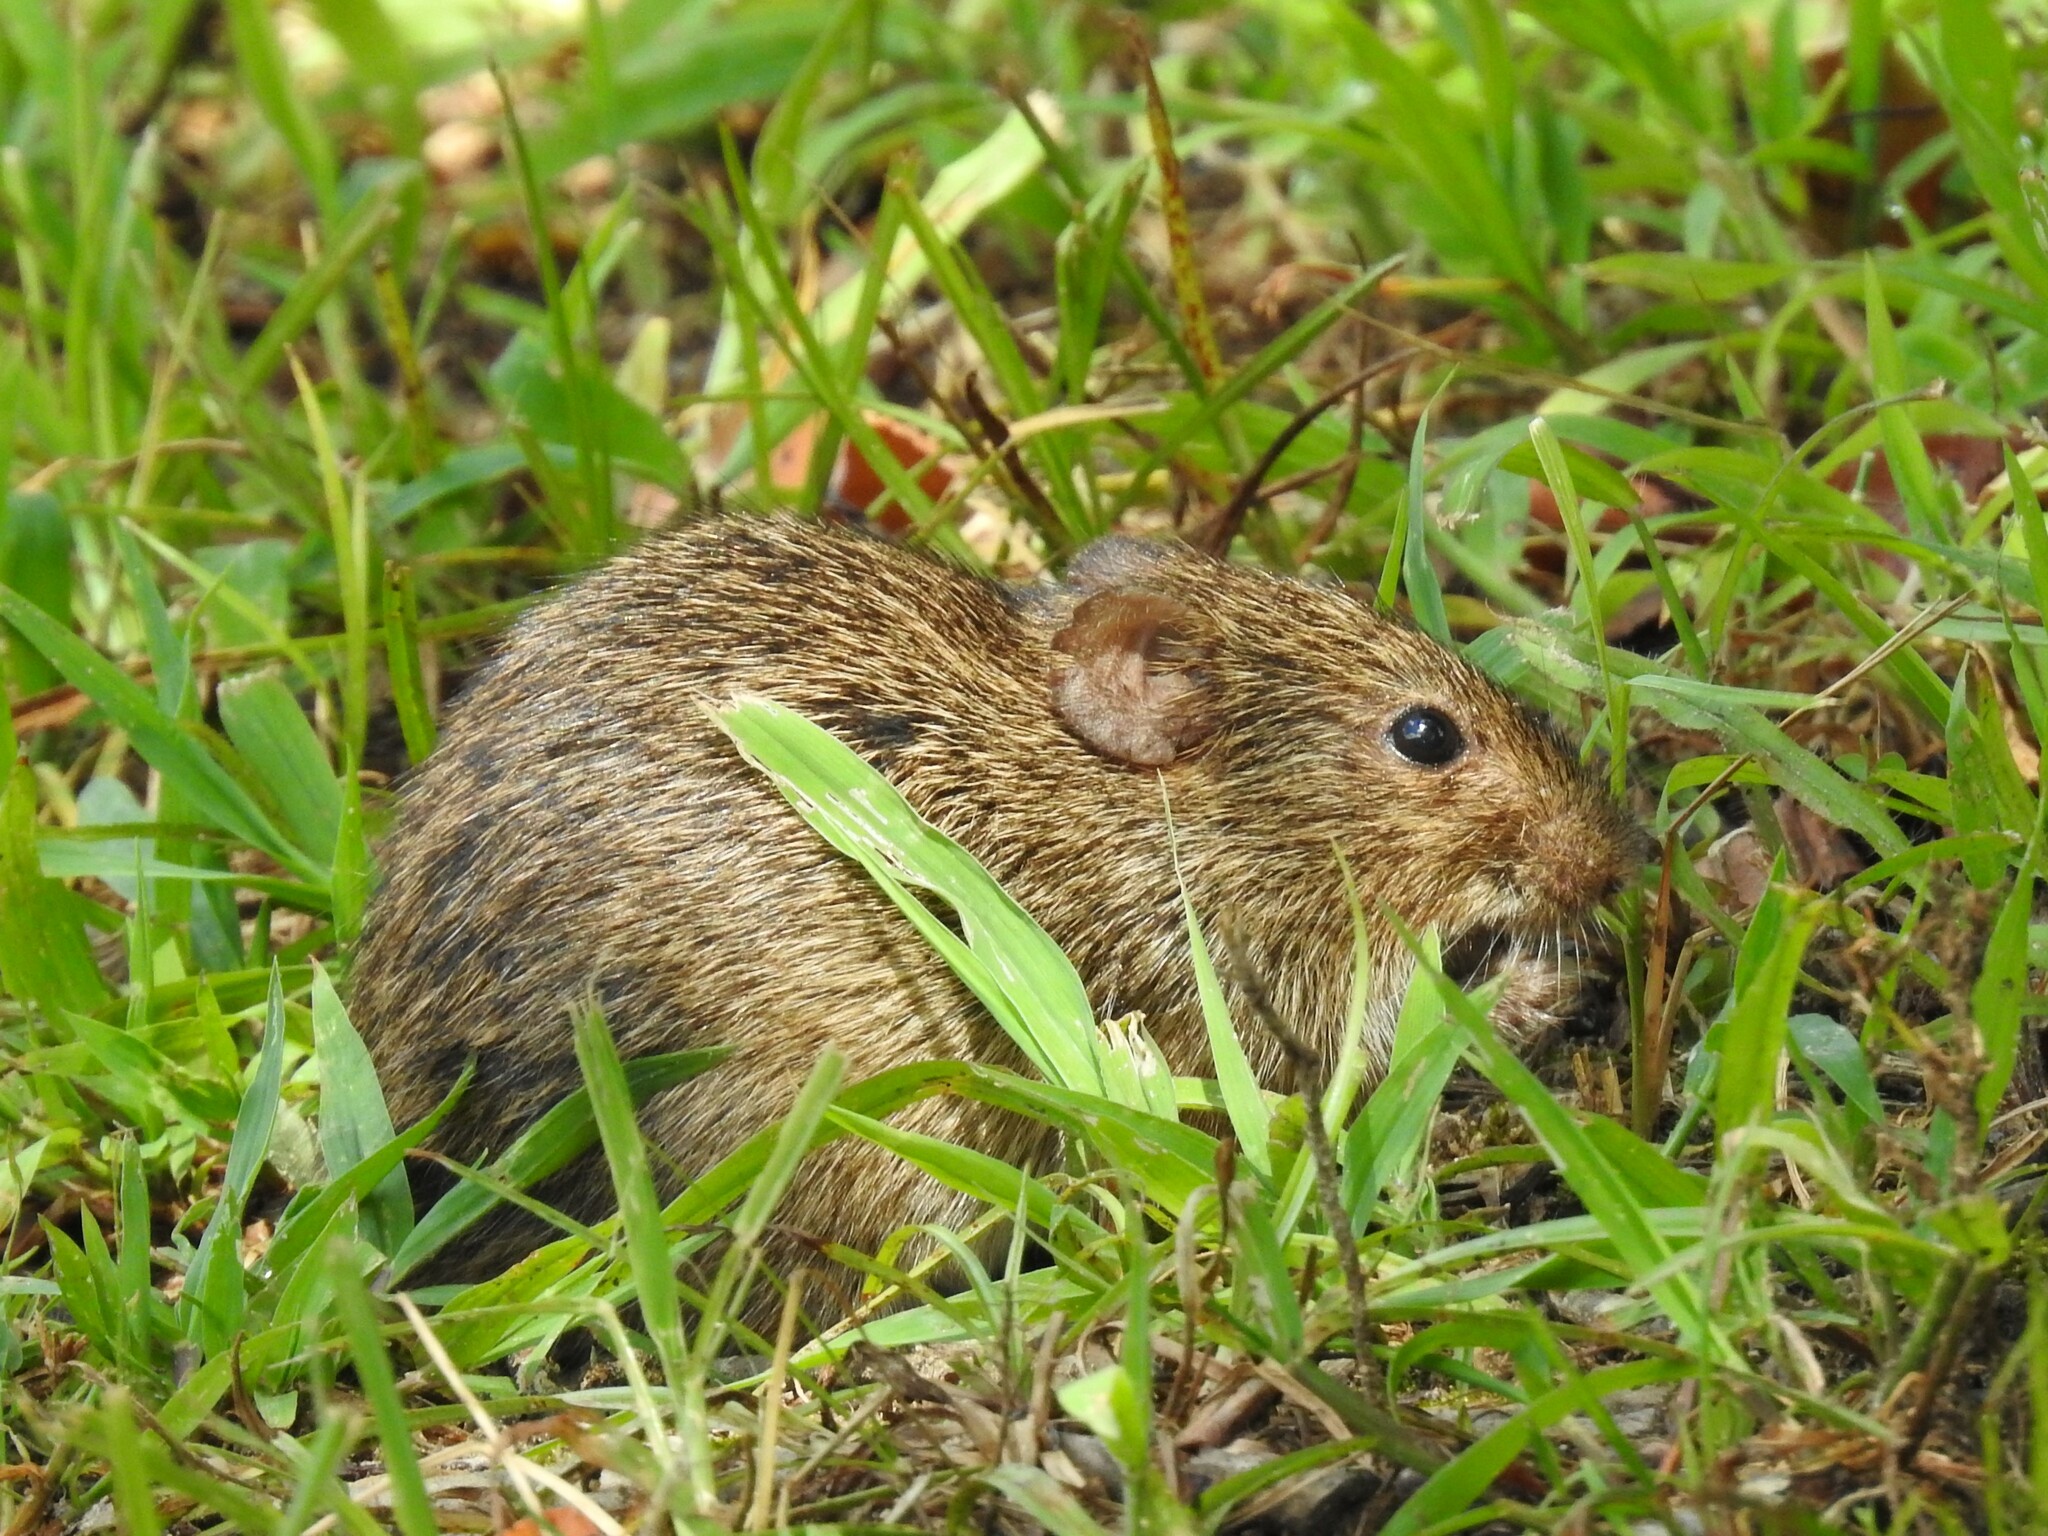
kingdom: Animalia
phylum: Chordata
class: Mammalia
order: Rodentia
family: Cricetidae
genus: Sigmodon
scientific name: Sigmodon hispidus
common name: Hispid cotton rat
